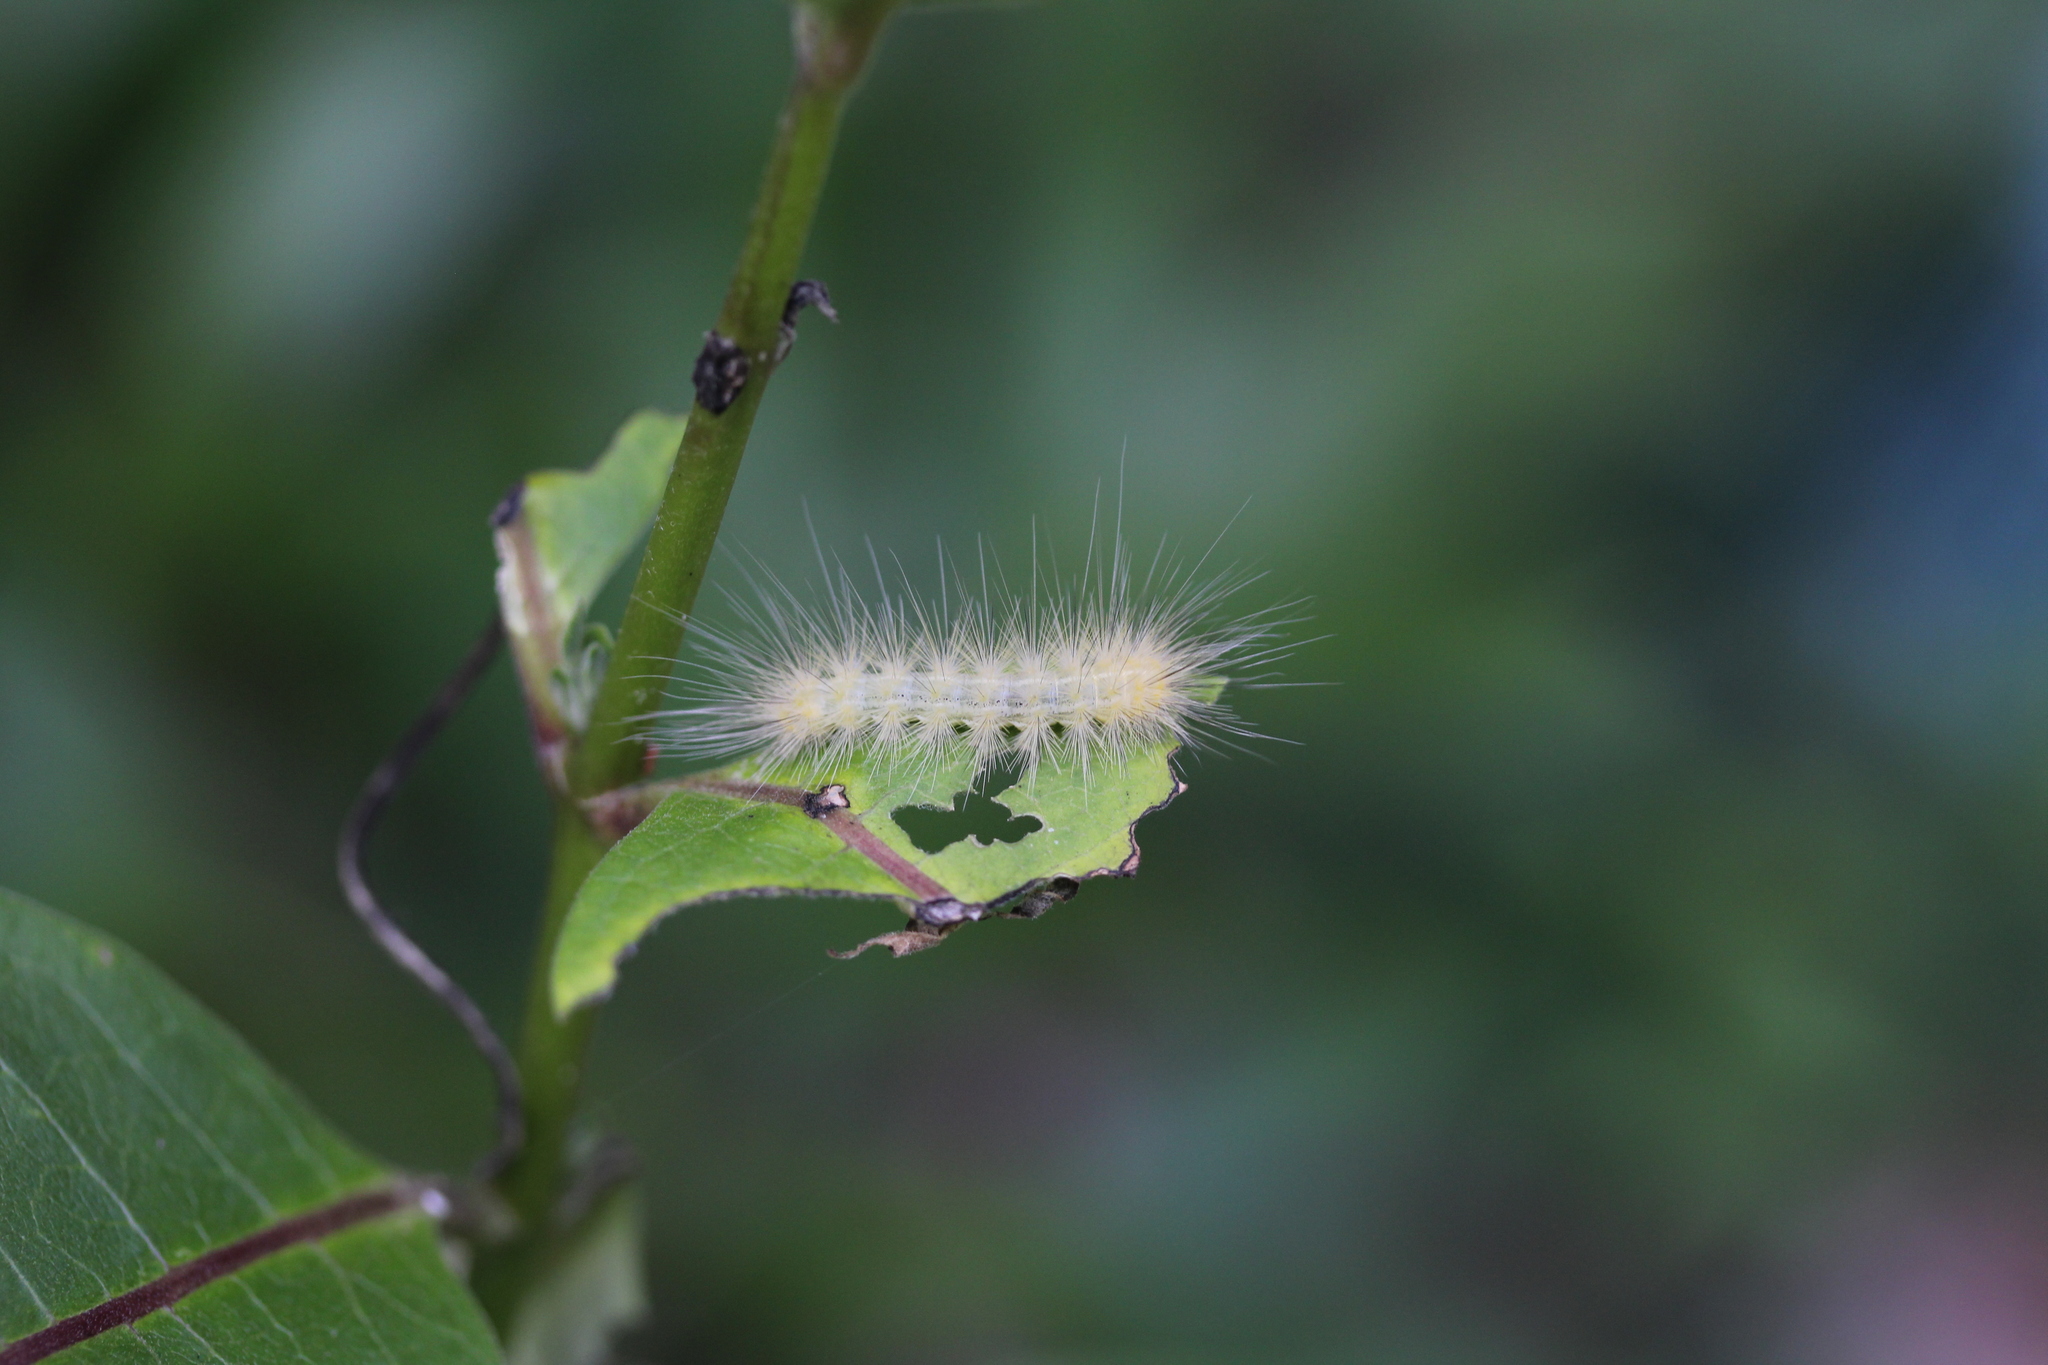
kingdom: Animalia
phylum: Arthropoda
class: Insecta
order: Lepidoptera
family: Erebidae
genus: Spilosoma
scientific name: Spilosoma virginica
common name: Virginia tiger moth
